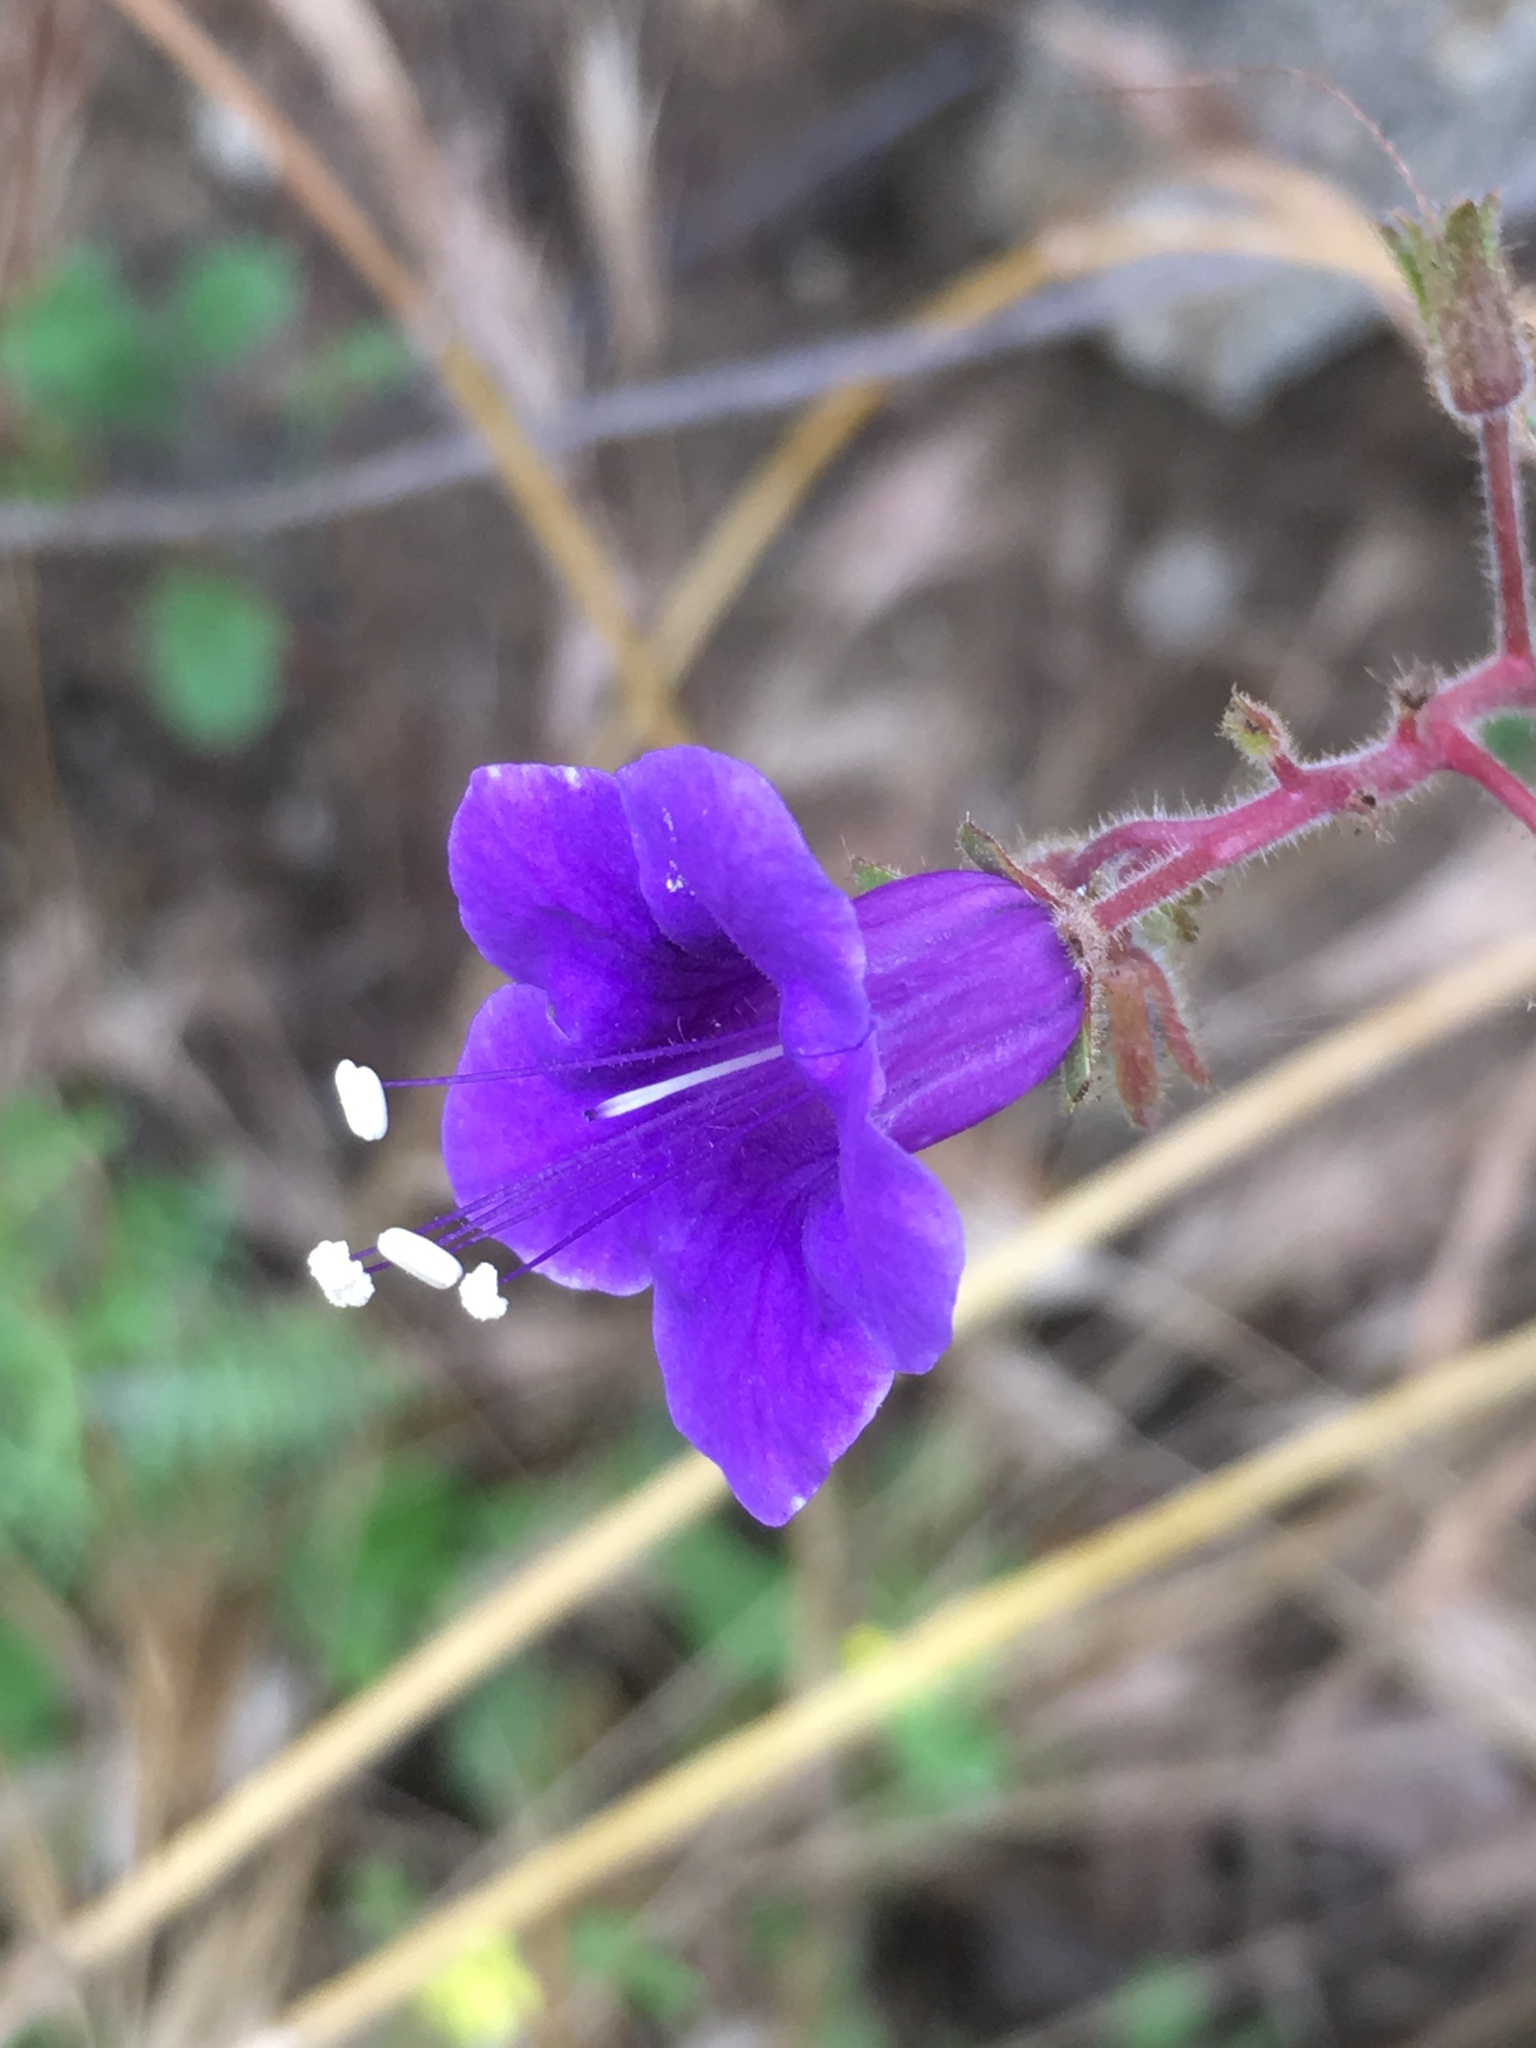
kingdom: Plantae
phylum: Tracheophyta
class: Magnoliopsida
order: Boraginales
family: Hydrophyllaceae
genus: Phacelia
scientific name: Phacelia minor
